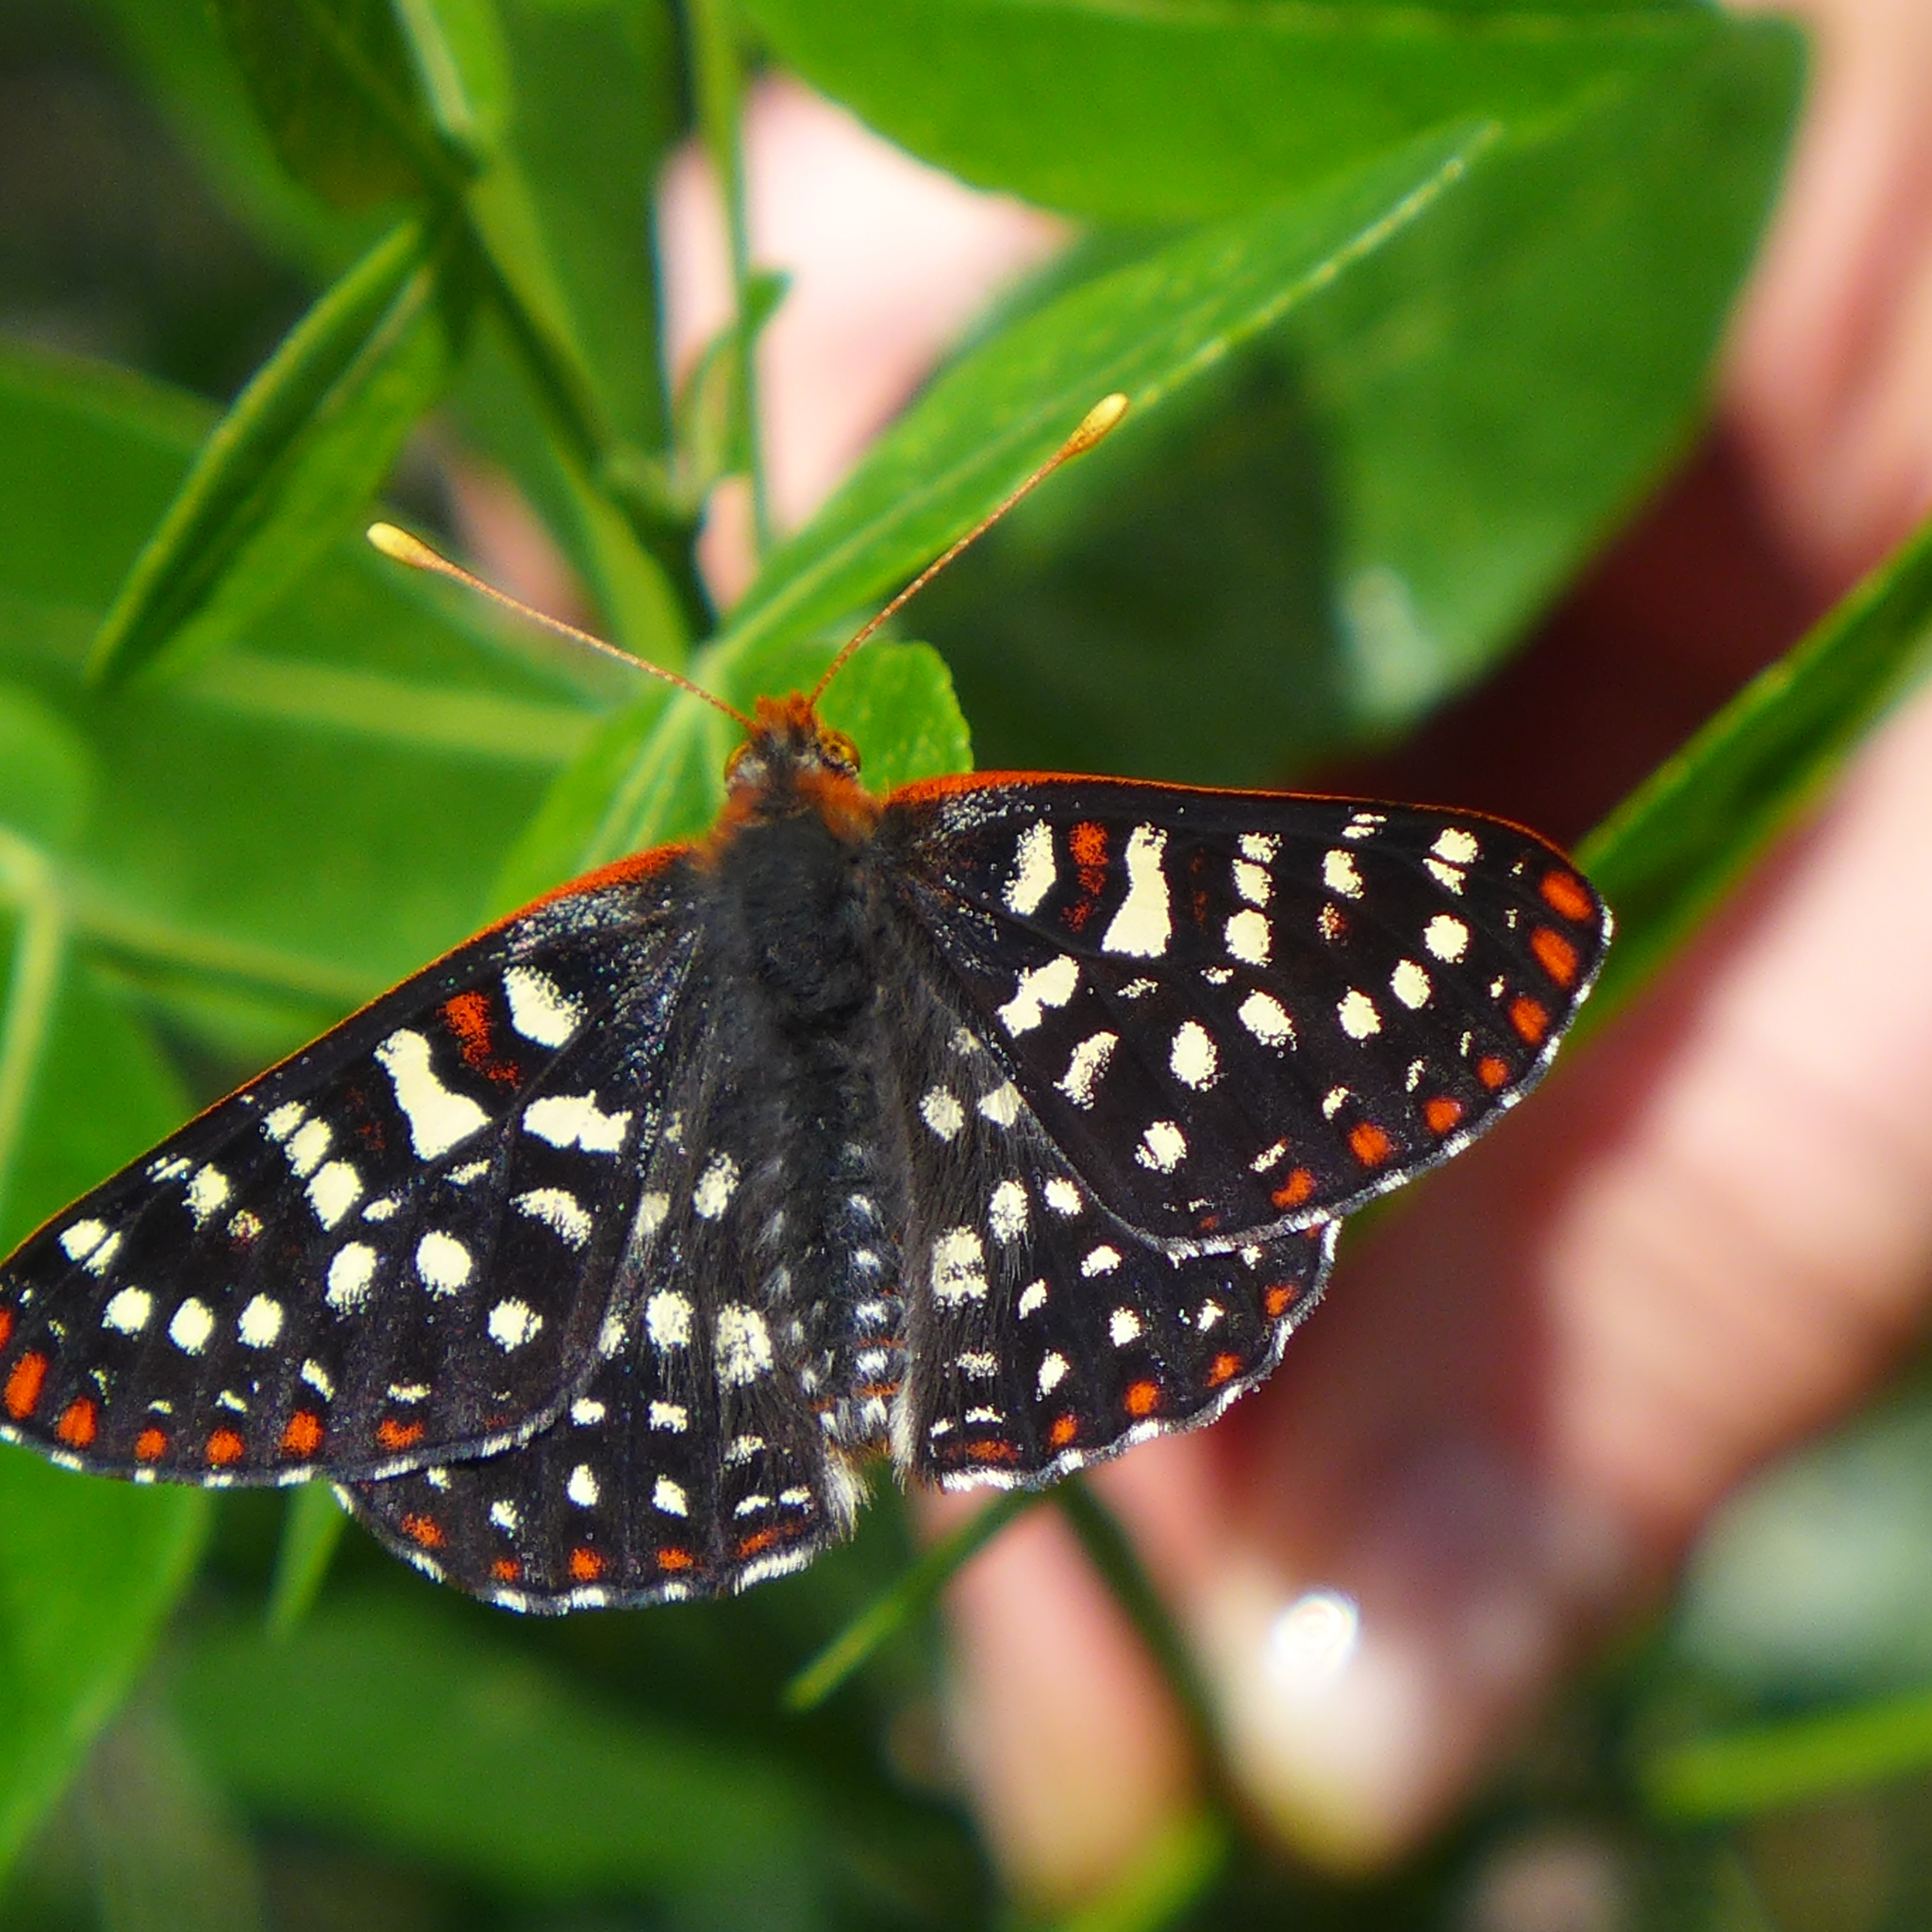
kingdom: Animalia
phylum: Arthropoda
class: Insecta
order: Lepidoptera
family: Nymphalidae
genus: Occidryas
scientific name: Occidryas chalcedona
